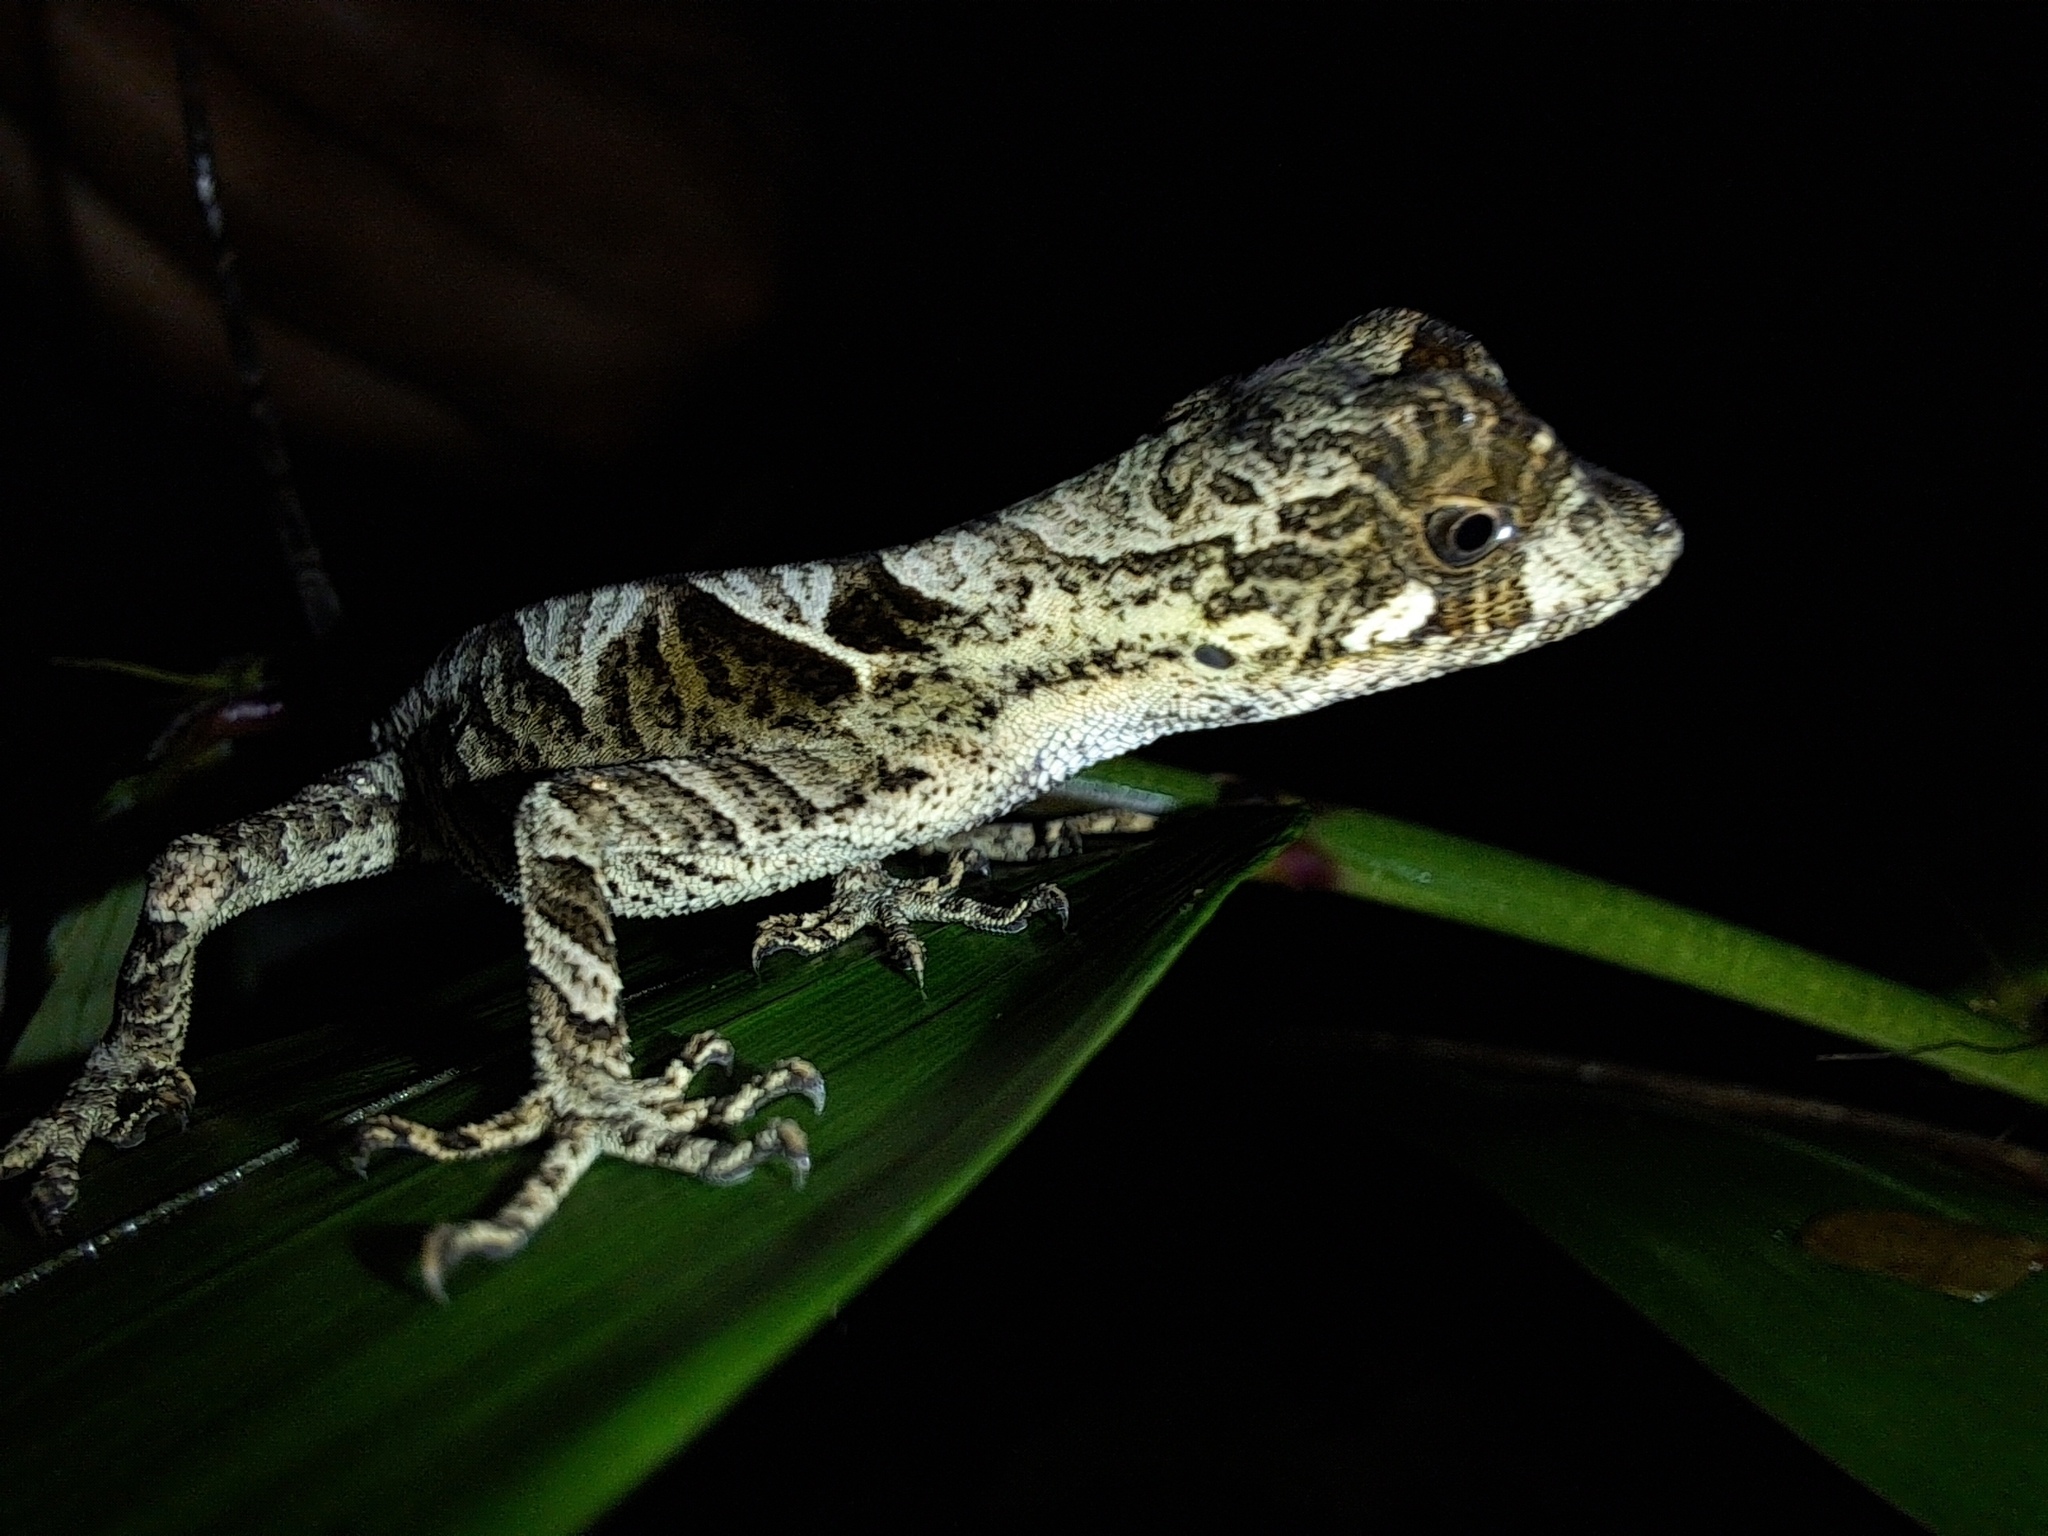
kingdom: Animalia
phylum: Chordata
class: Squamata
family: Dactyloidae
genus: Anolis
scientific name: Anolis scypheus
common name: Yellow-tongued anole
